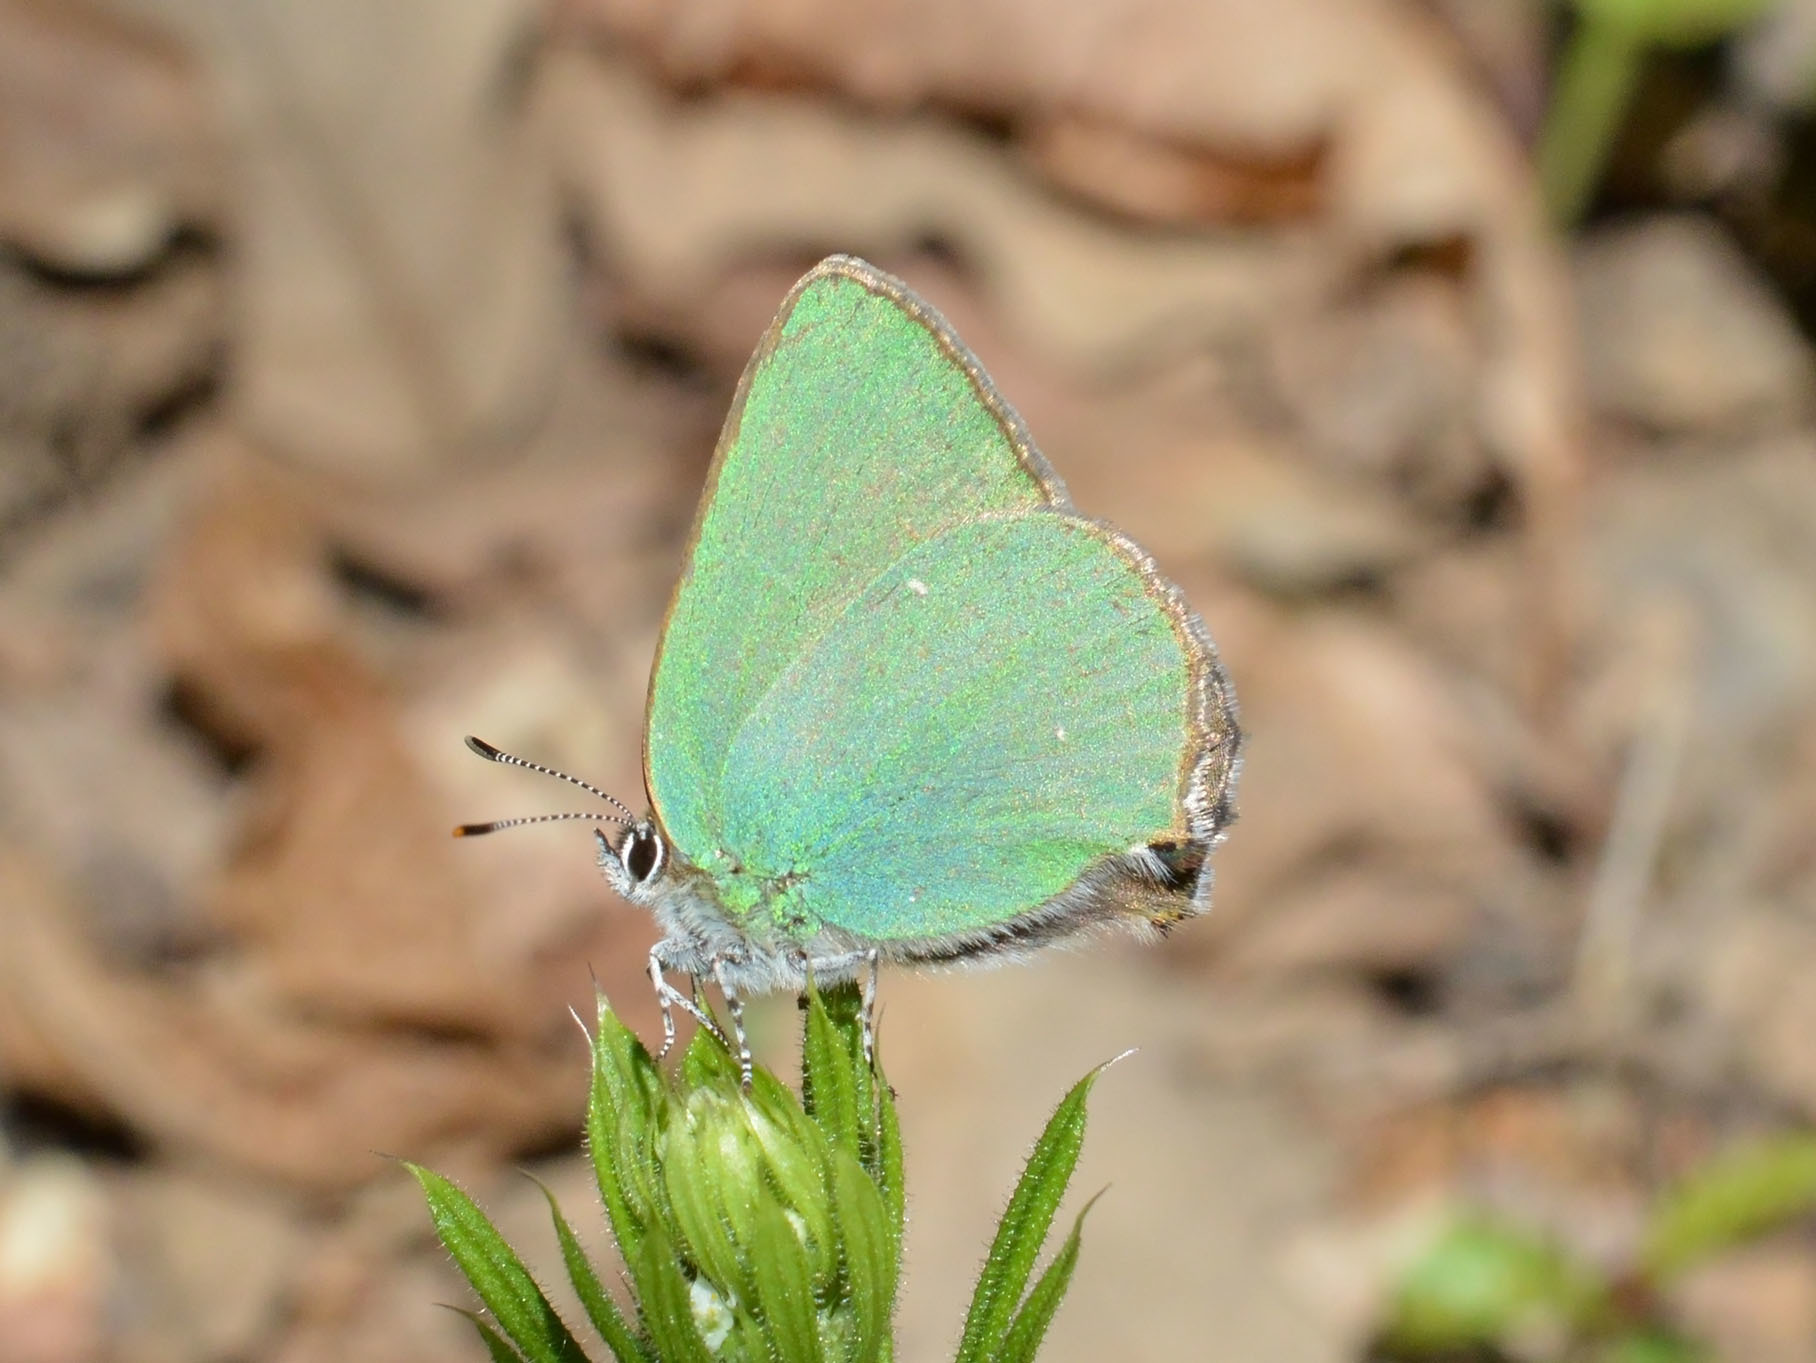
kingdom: Animalia
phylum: Arthropoda
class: Insecta
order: Lepidoptera
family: Lycaenidae
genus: Callophrys
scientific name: Callophrys rubi
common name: Green hairstreak
